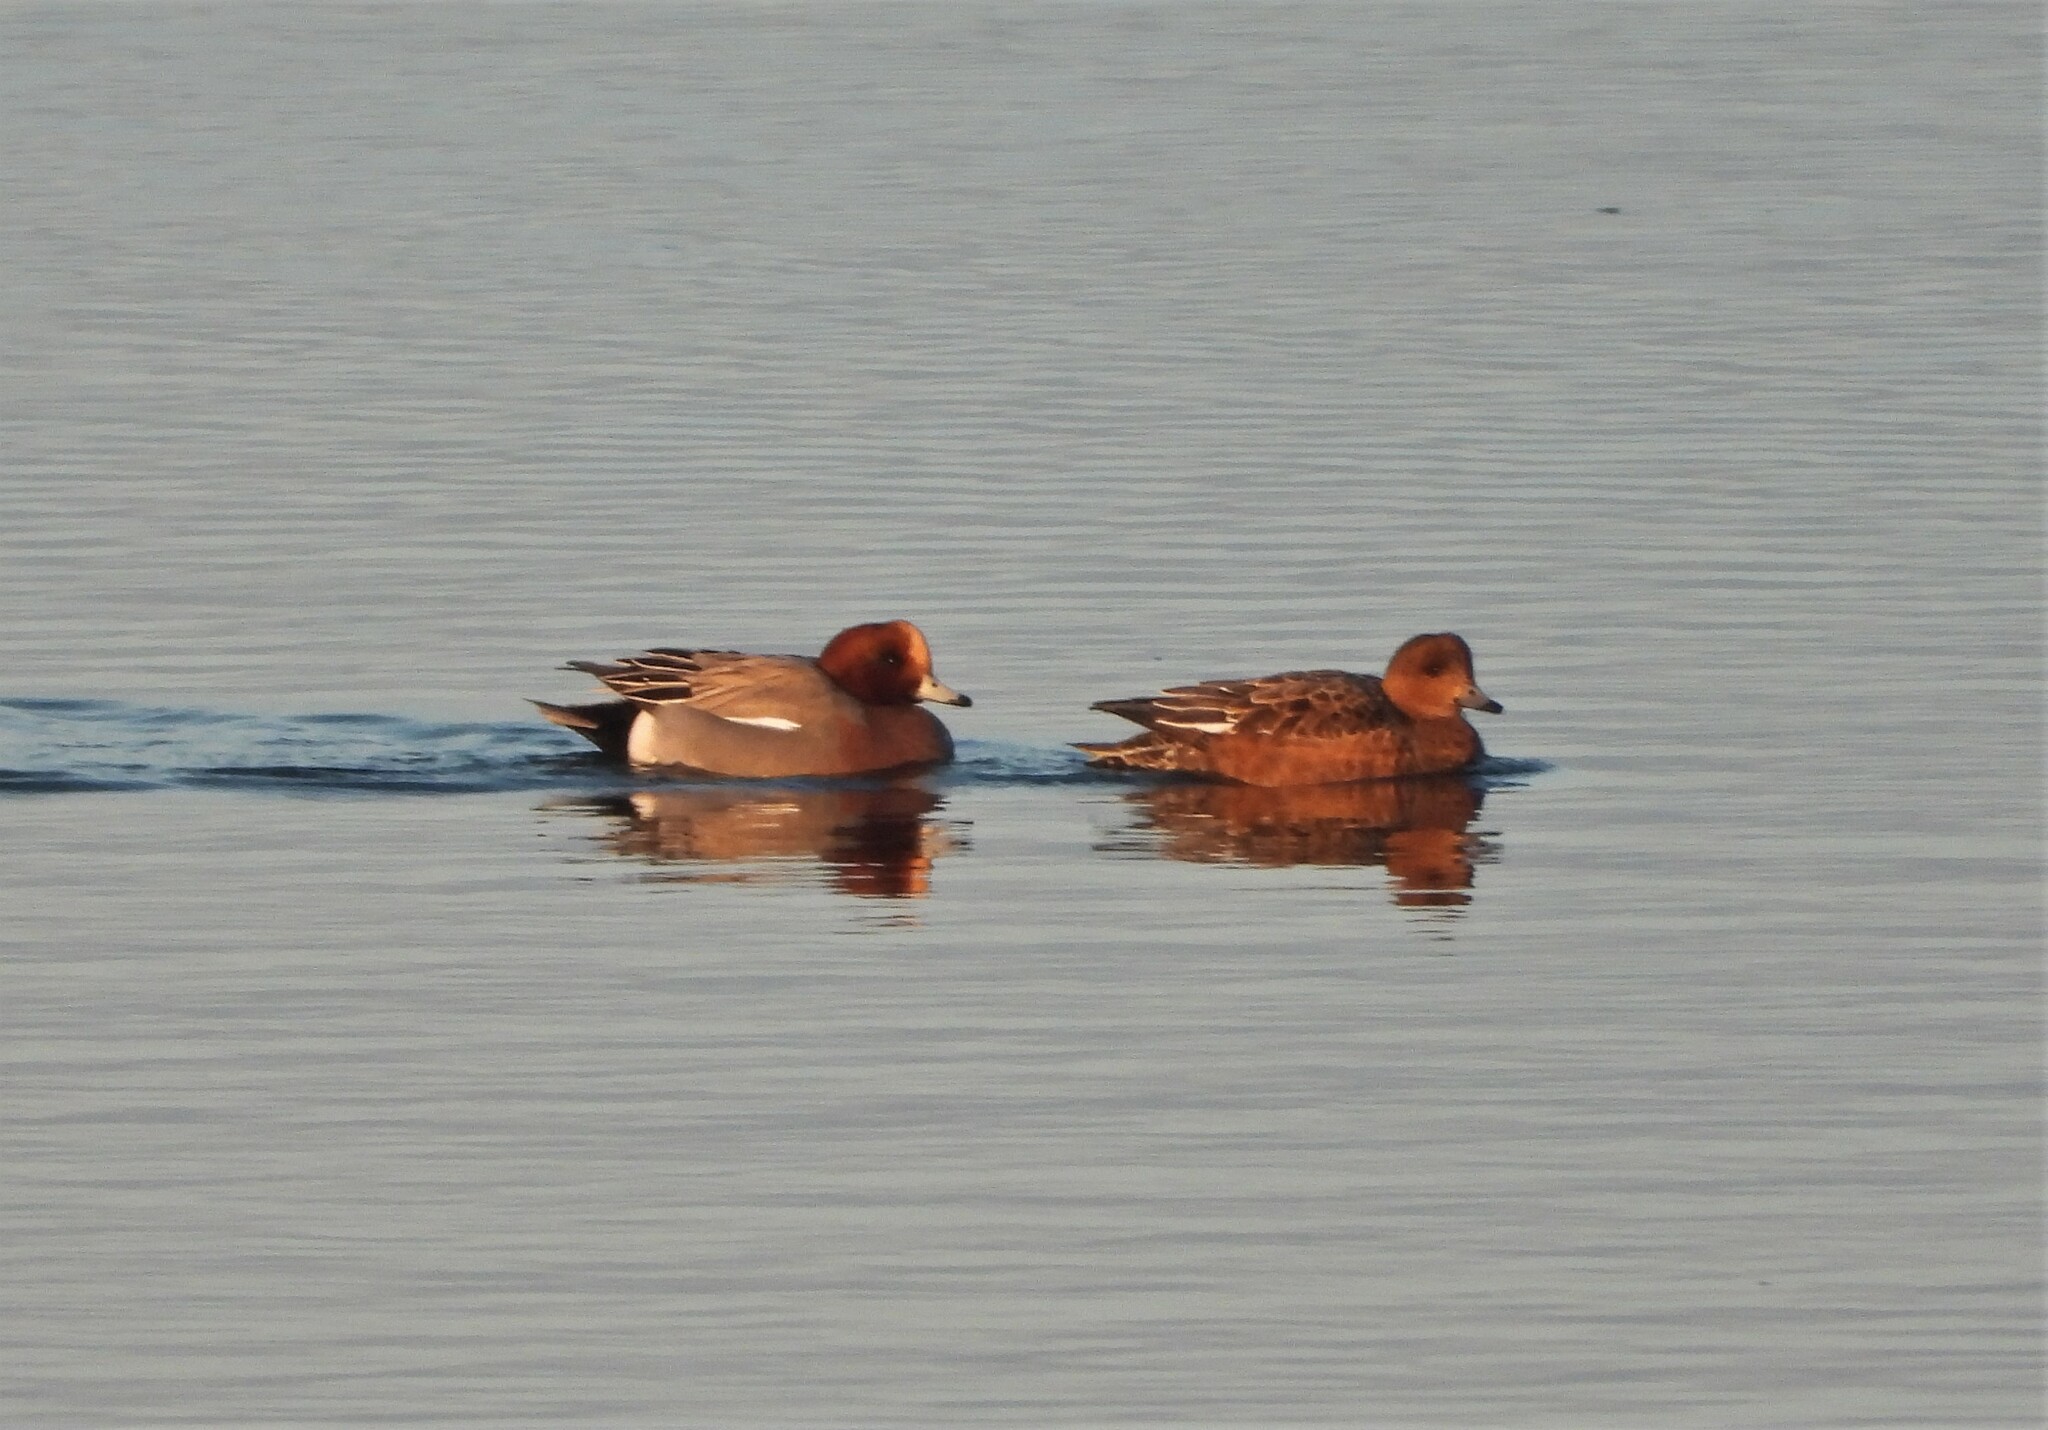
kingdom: Animalia
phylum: Chordata
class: Aves
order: Anseriformes
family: Anatidae
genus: Mareca
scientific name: Mareca penelope
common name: Eurasian wigeon
